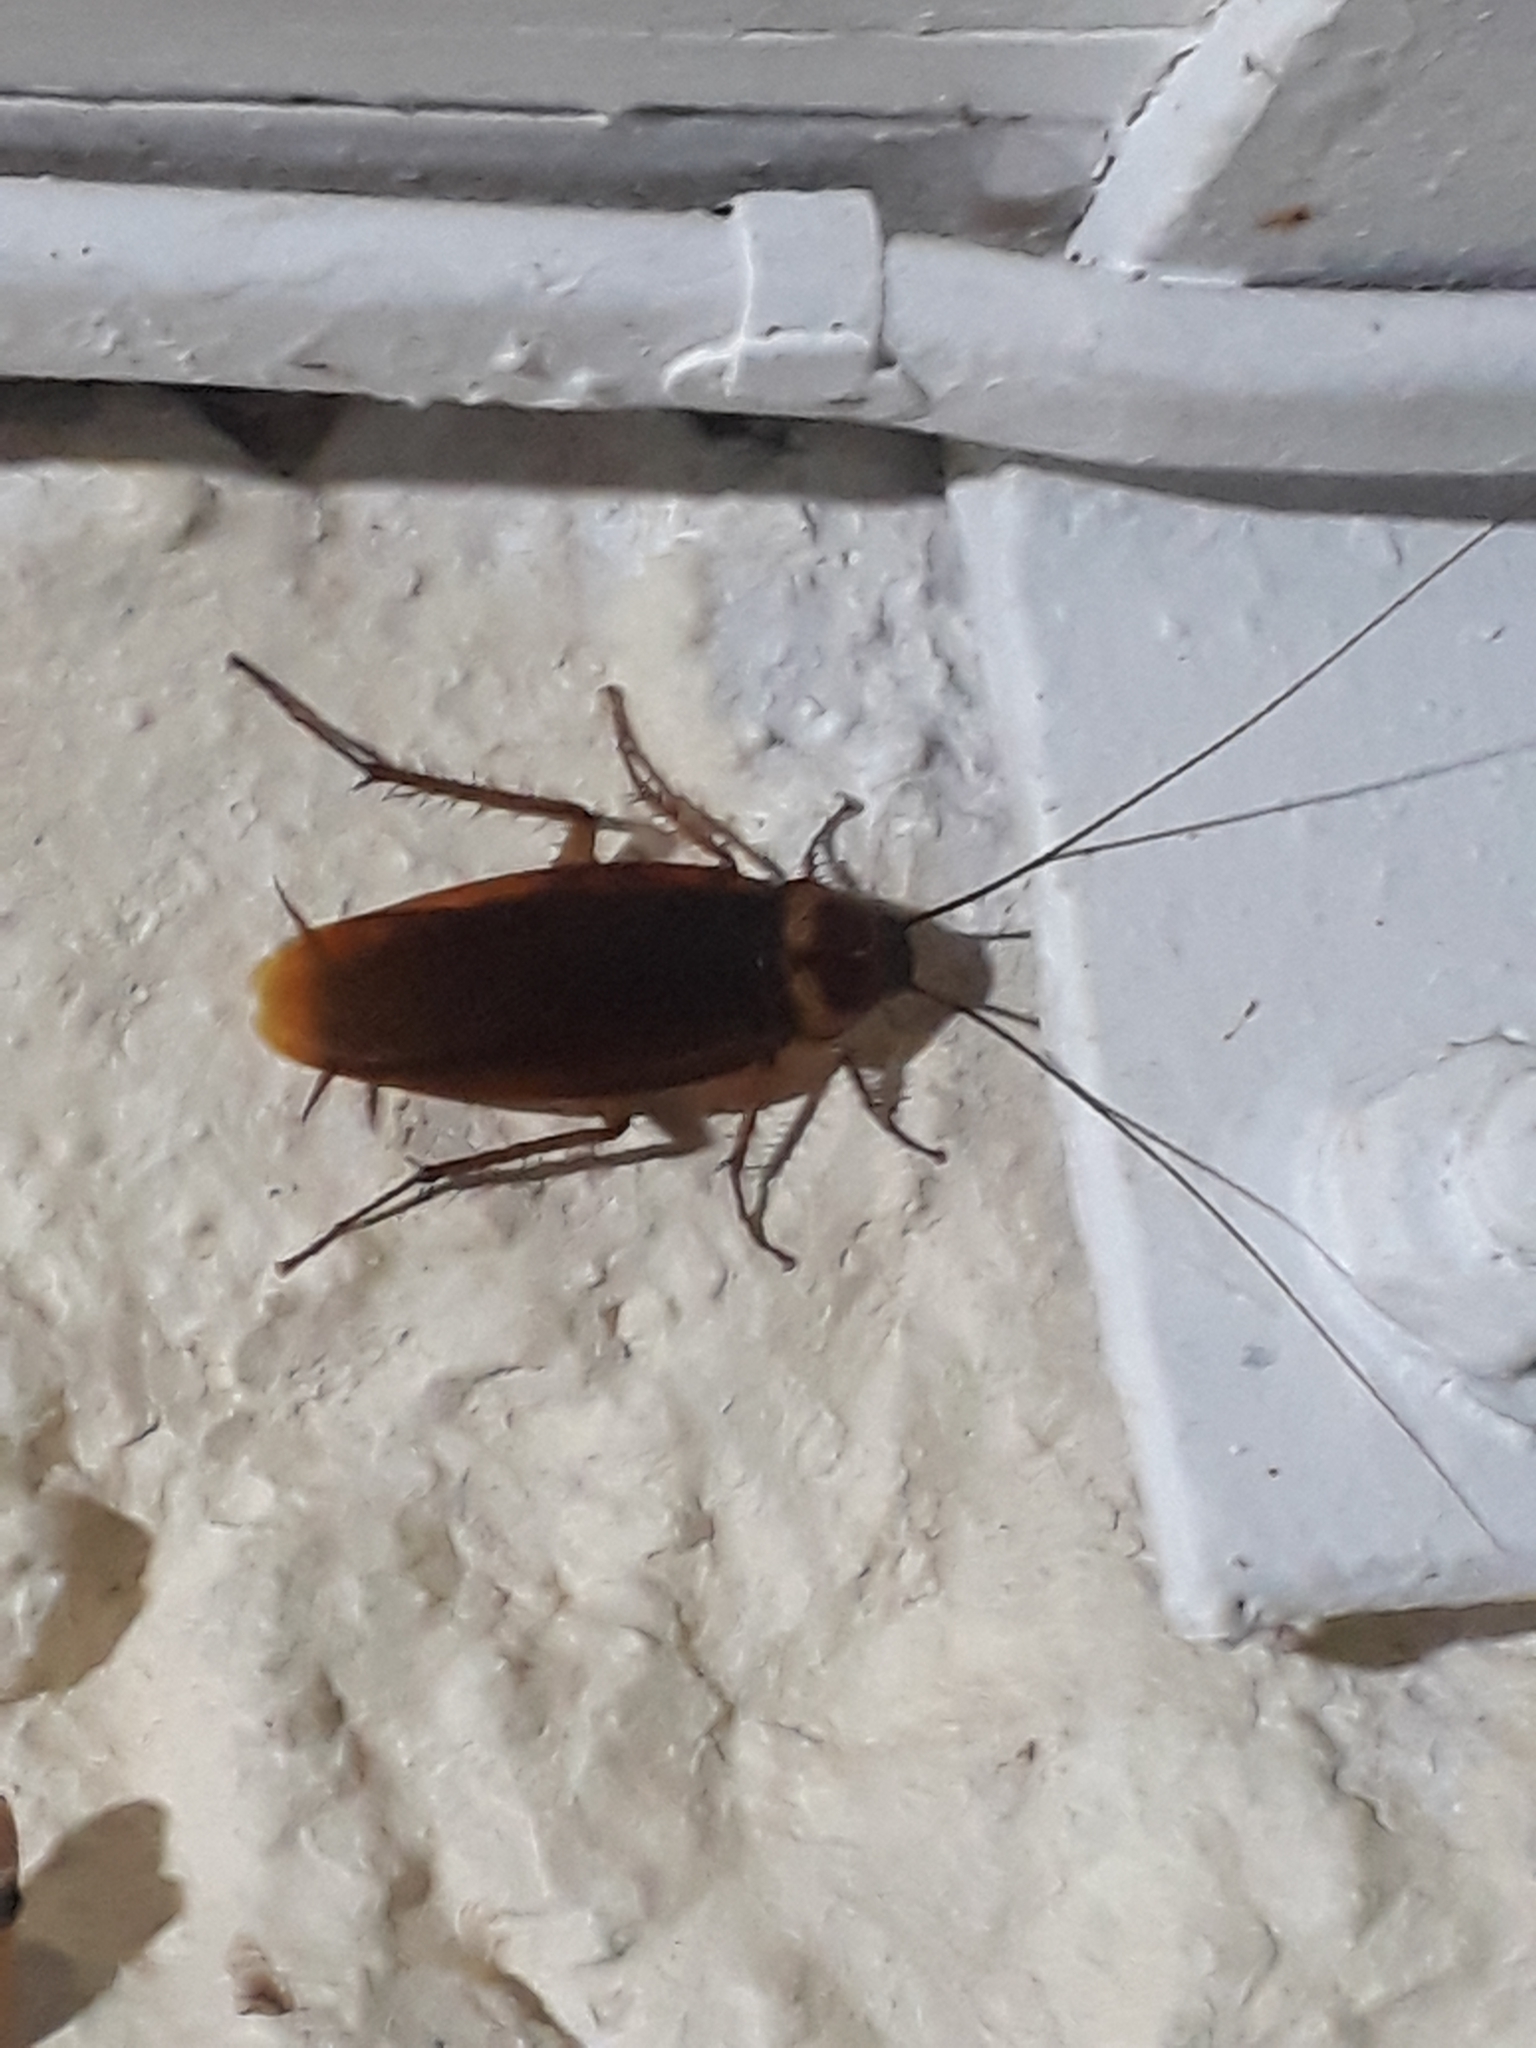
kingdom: Animalia
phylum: Arthropoda
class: Insecta
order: Blattodea
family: Blattidae
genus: Periplaneta
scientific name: Periplaneta americana
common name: American cockroach
